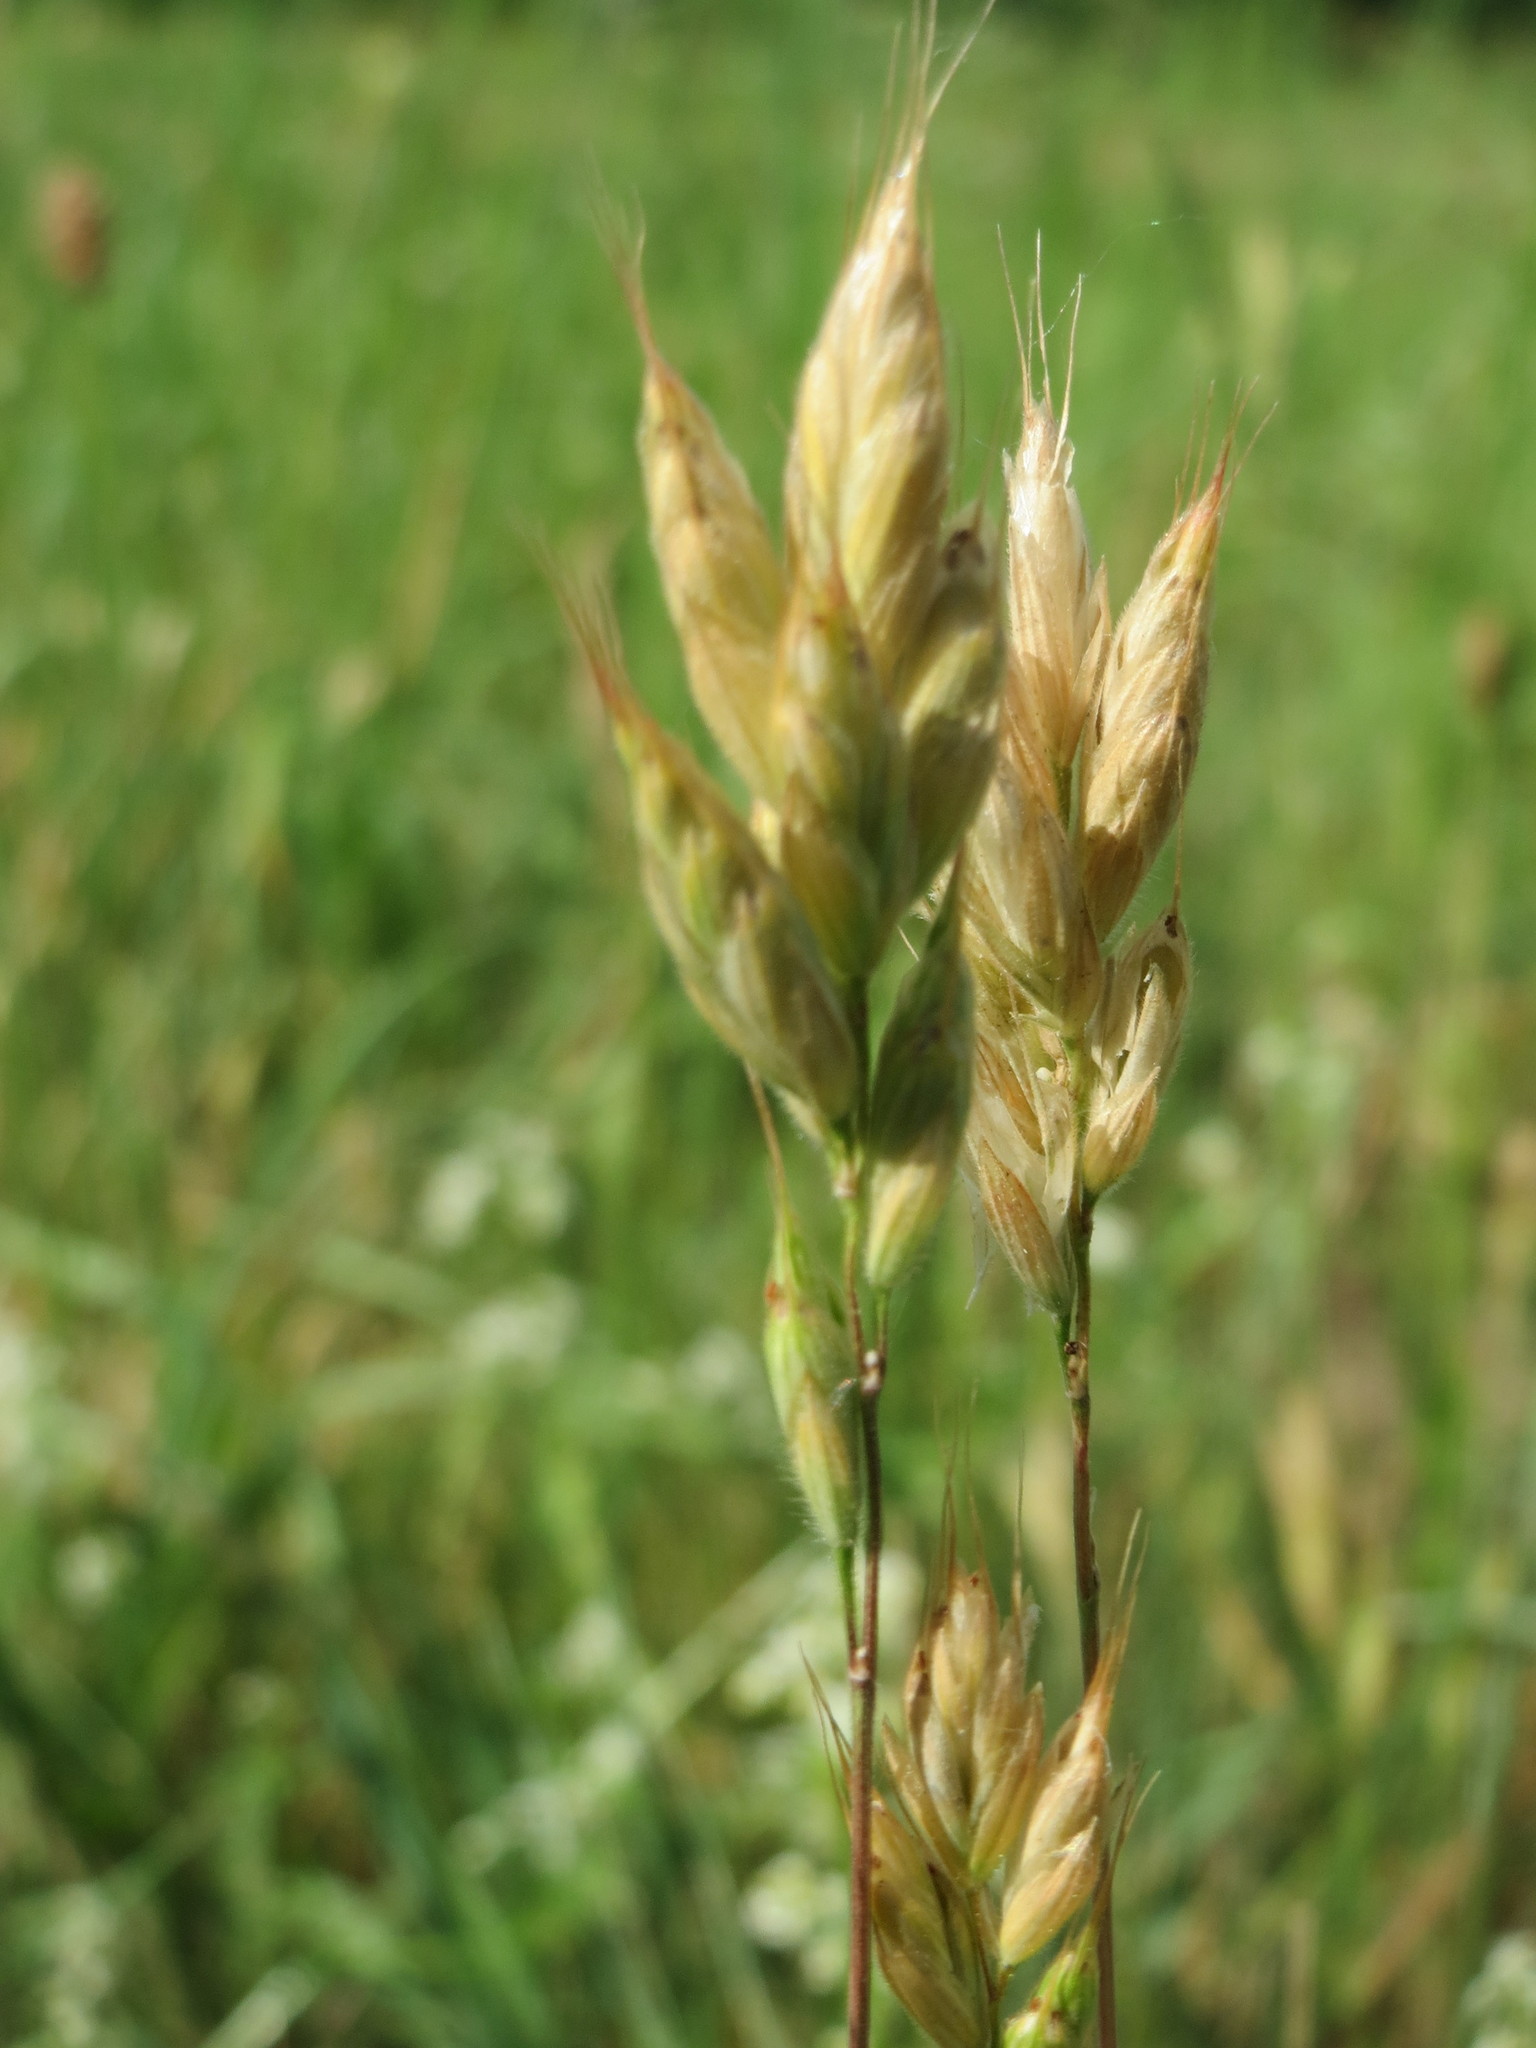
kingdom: Plantae
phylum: Tracheophyta
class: Liliopsida
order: Poales
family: Poaceae
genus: Bromus
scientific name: Bromus hordeaceus
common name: Soft brome
